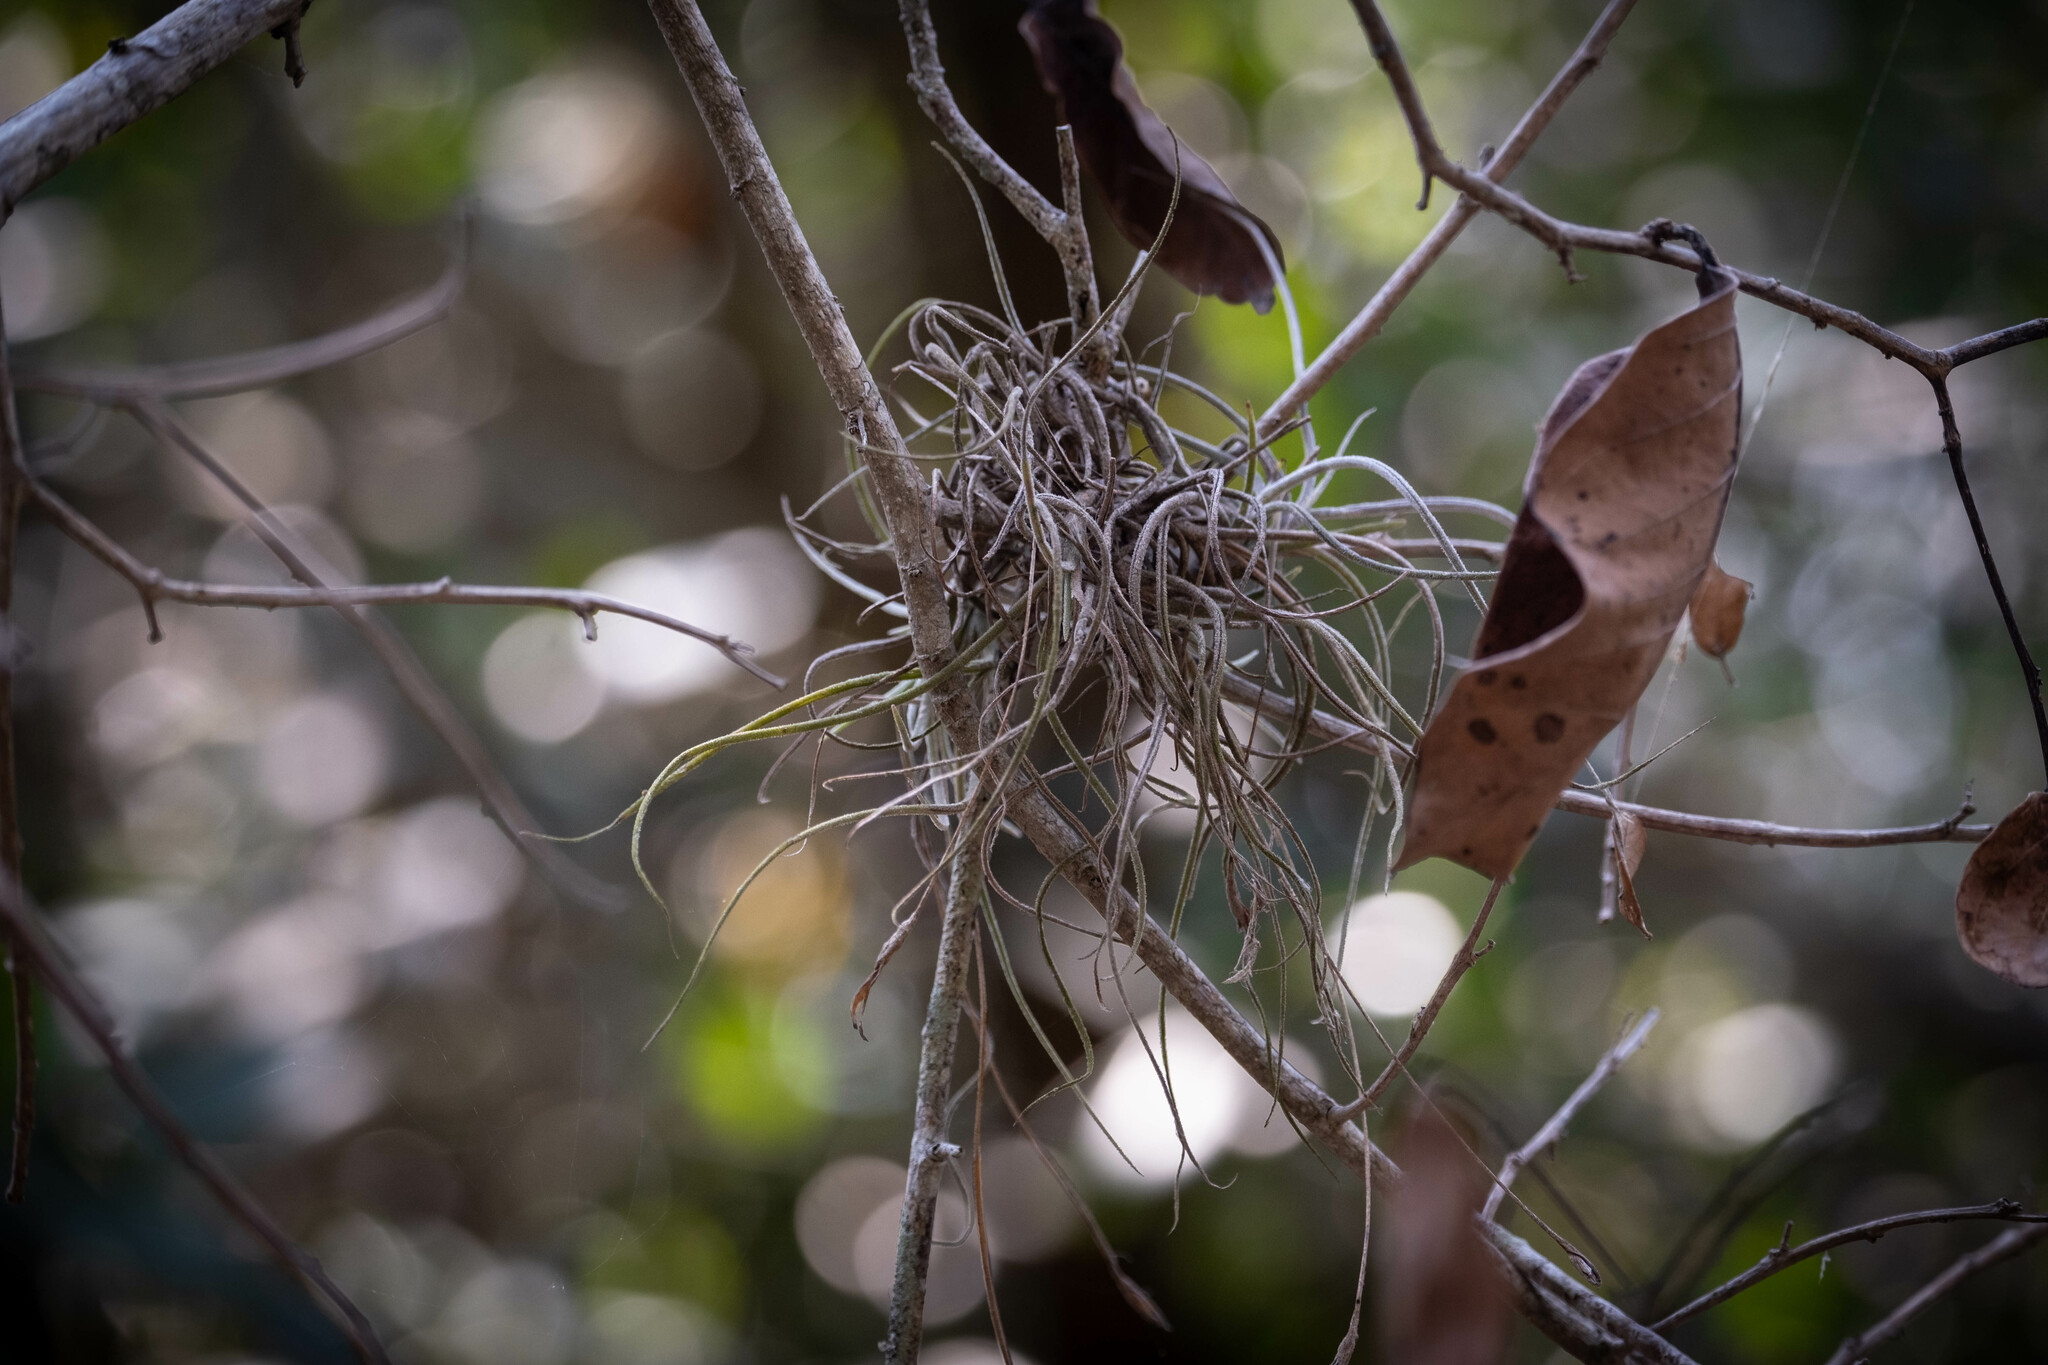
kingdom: Plantae
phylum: Tracheophyta
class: Liliopsida
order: Poales
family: Bromeliaceae
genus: Tillandsia
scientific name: Tillandsia recurvata
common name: Small ballmoss
